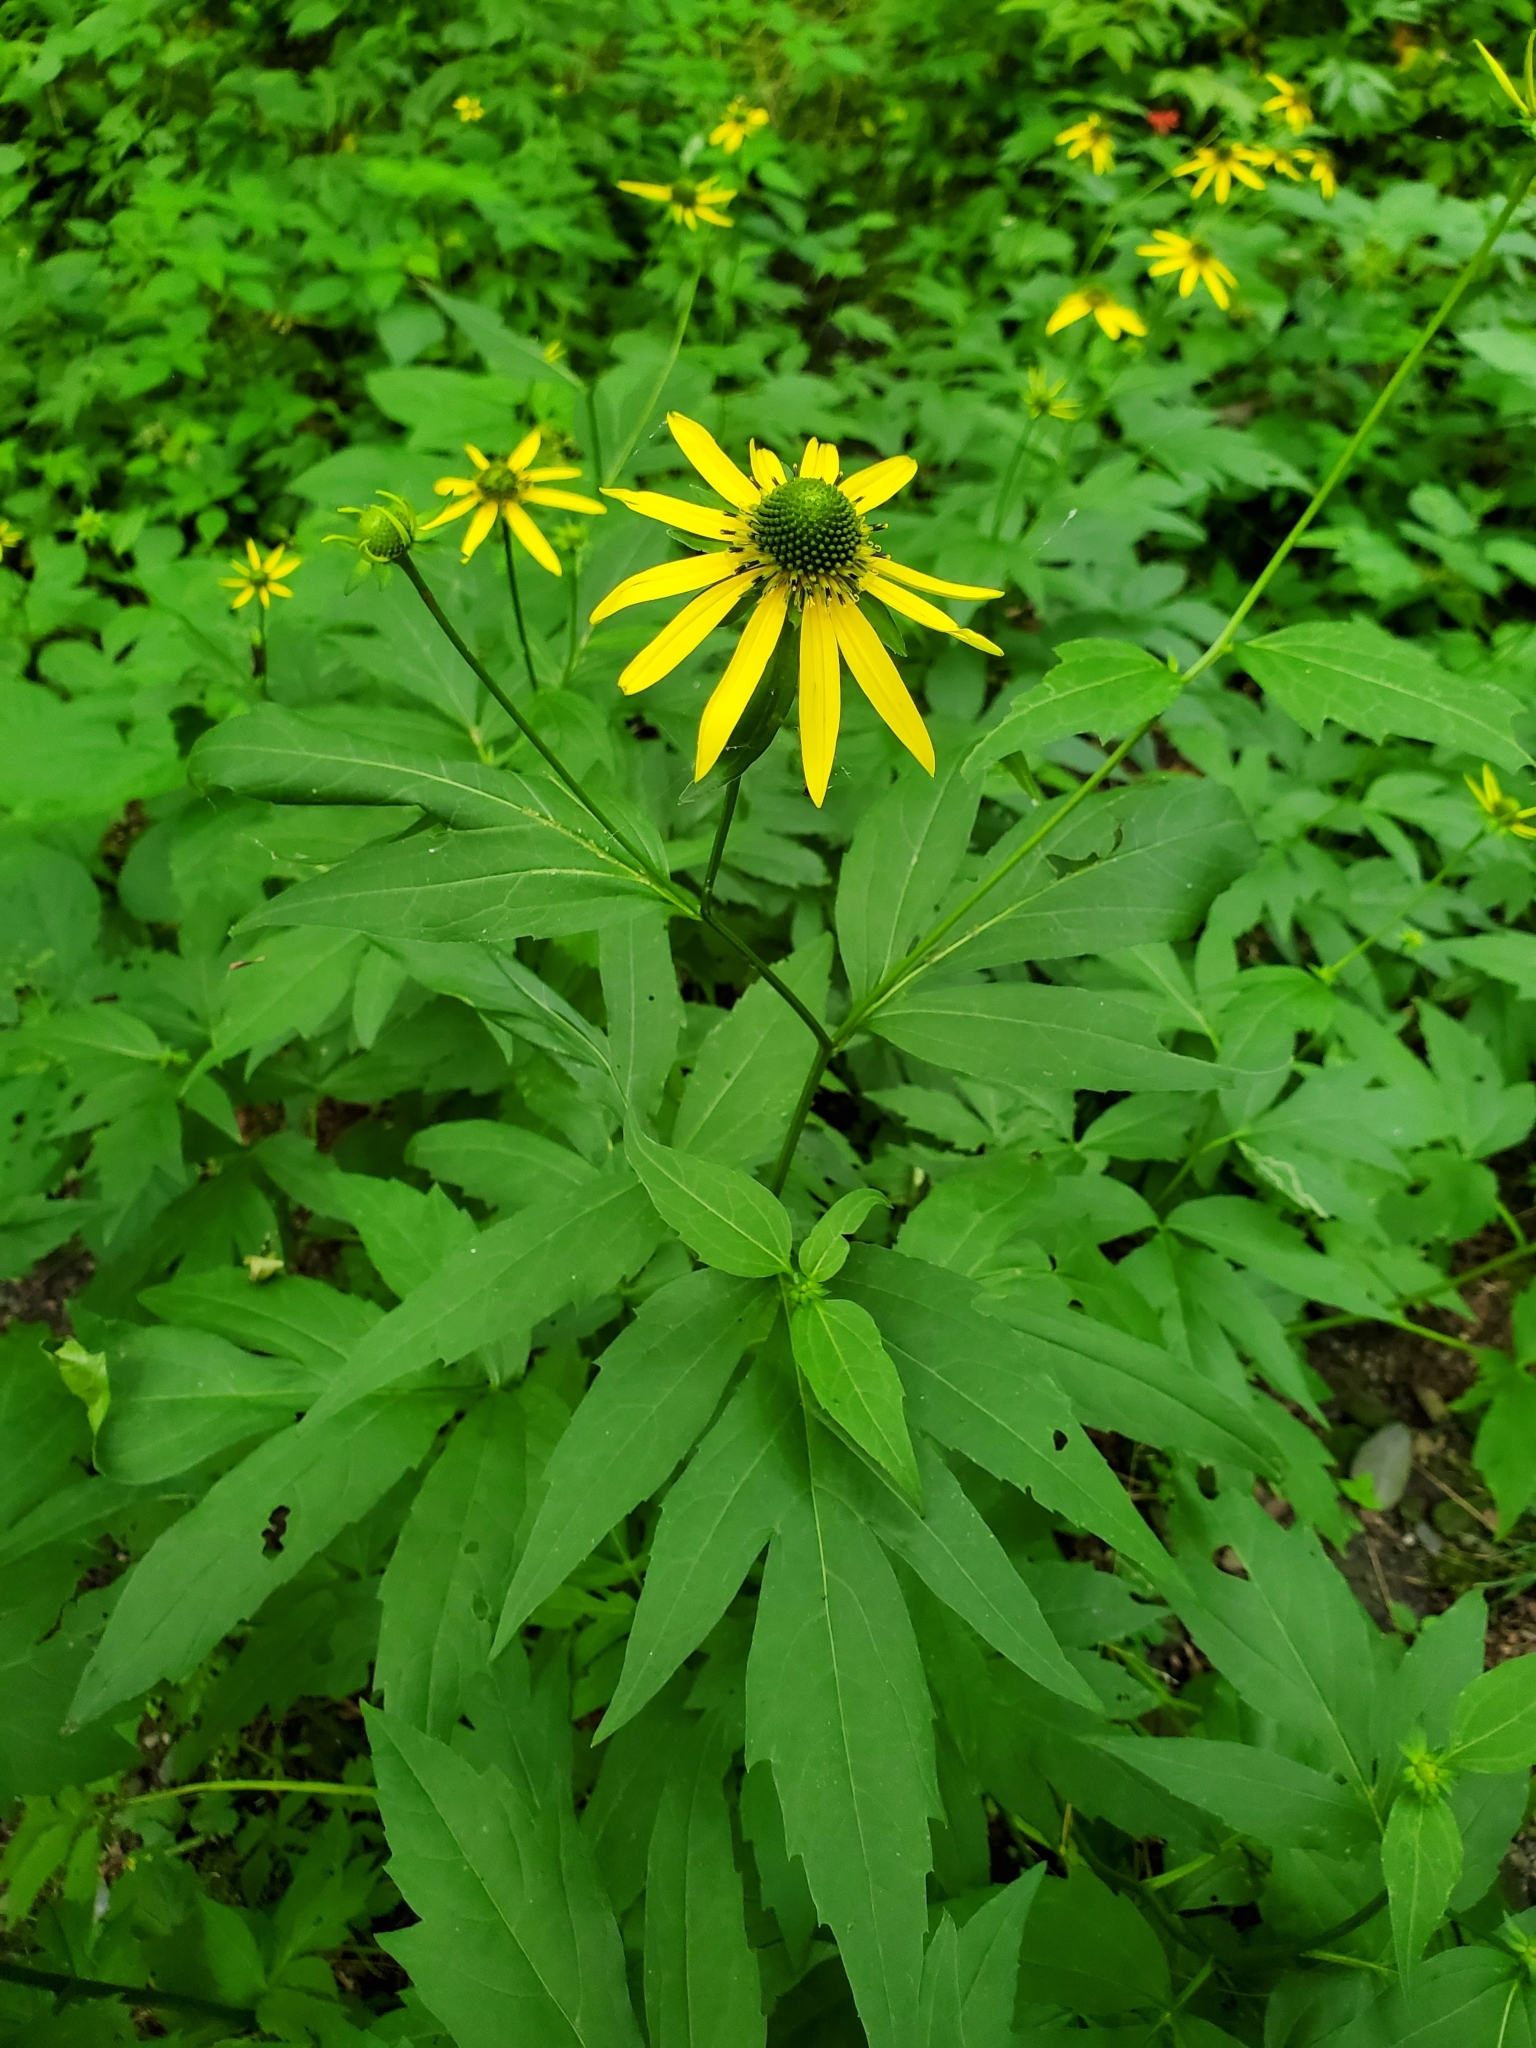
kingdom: Plantae
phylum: Tracheophyta
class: Magnoliopsida
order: Asterales
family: Asteraceae
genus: Rudbeckia
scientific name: Rudbeckia laciniata
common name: Coneflower
